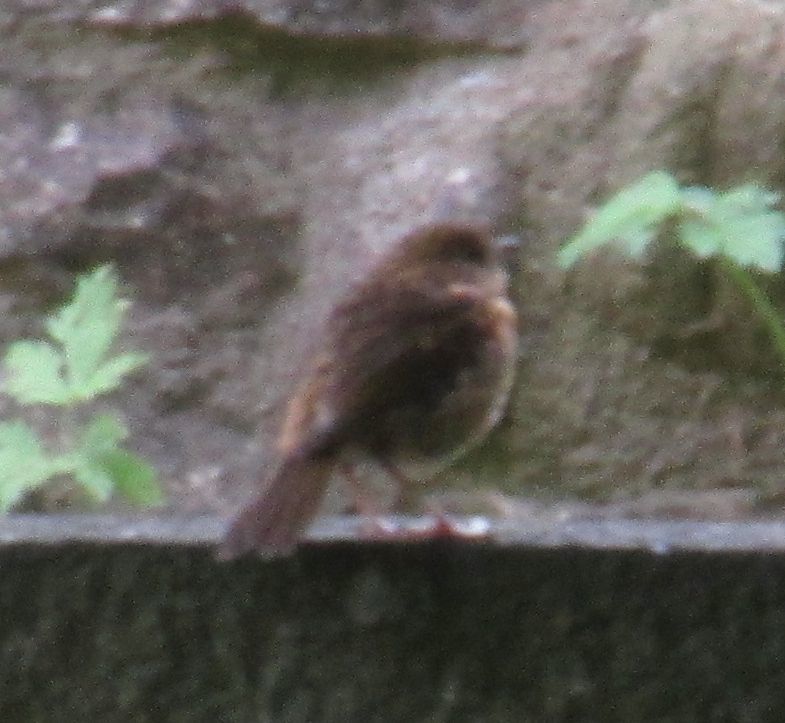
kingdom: Animalia
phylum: Chordata
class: Aves
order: Passeriformes
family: Muscicapidae
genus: Erithacus
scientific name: Erithacus rubecula
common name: European robin
